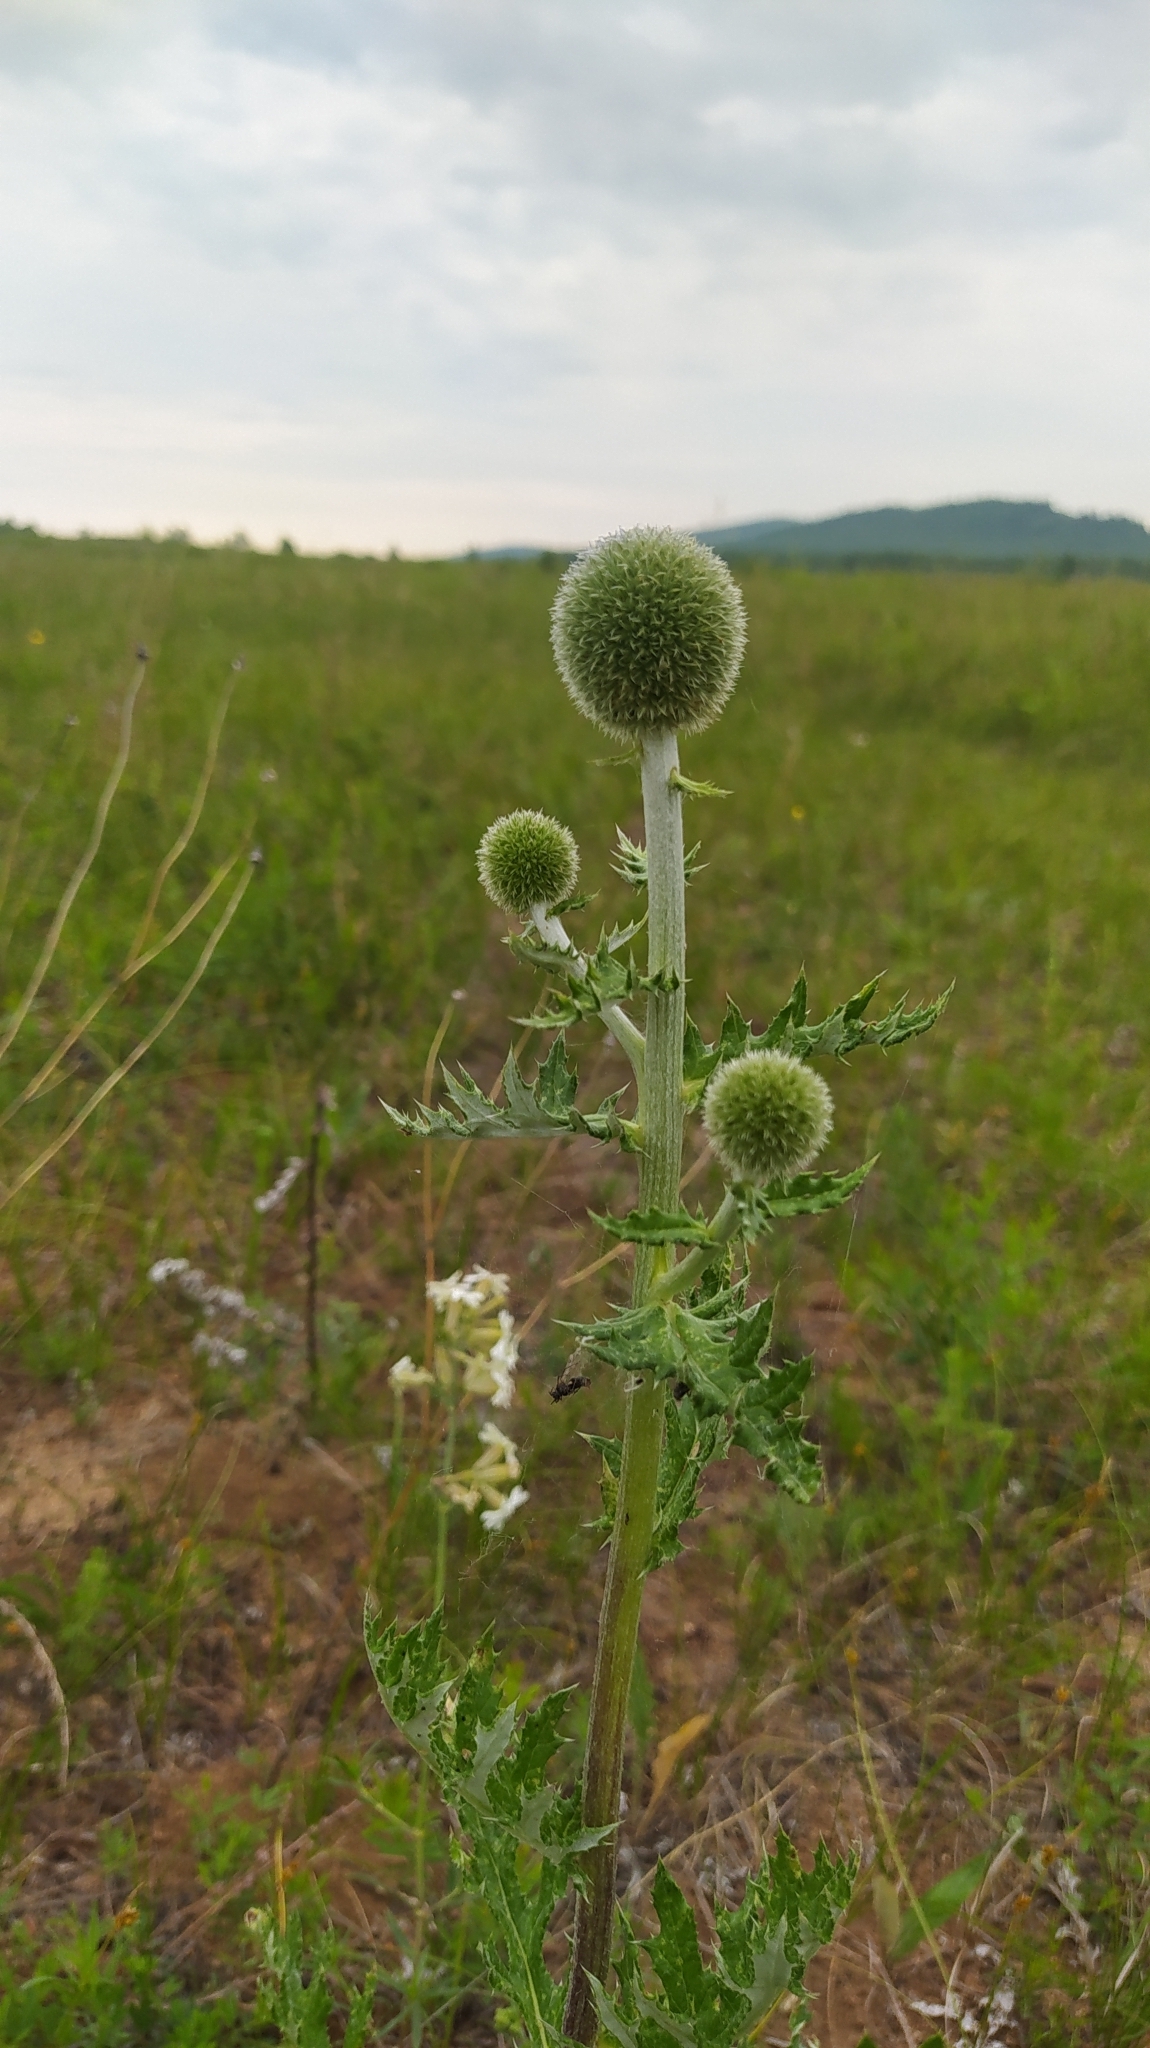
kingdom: Plantae
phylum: Tracheophyta
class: Magnoliopsida
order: Asterales
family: Asteraceae
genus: Echinops
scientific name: Echinops davuricus
